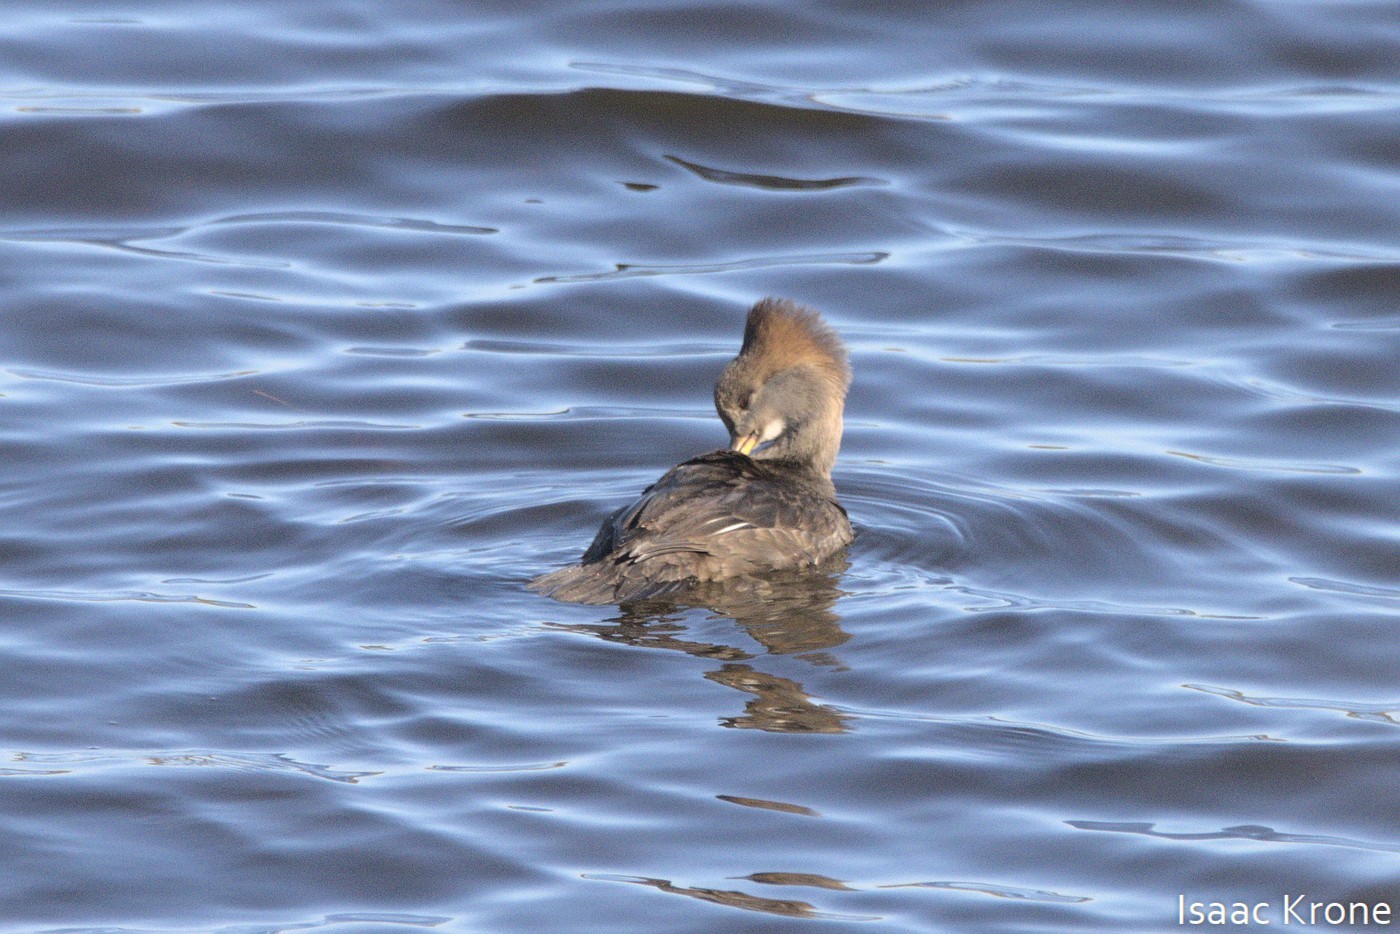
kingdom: Animalia
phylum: Chordata
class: Aves
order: Anseriformes
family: Anatidae
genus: Lophodytes
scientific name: Lophodytes cucullatus
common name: Hooded merganser
